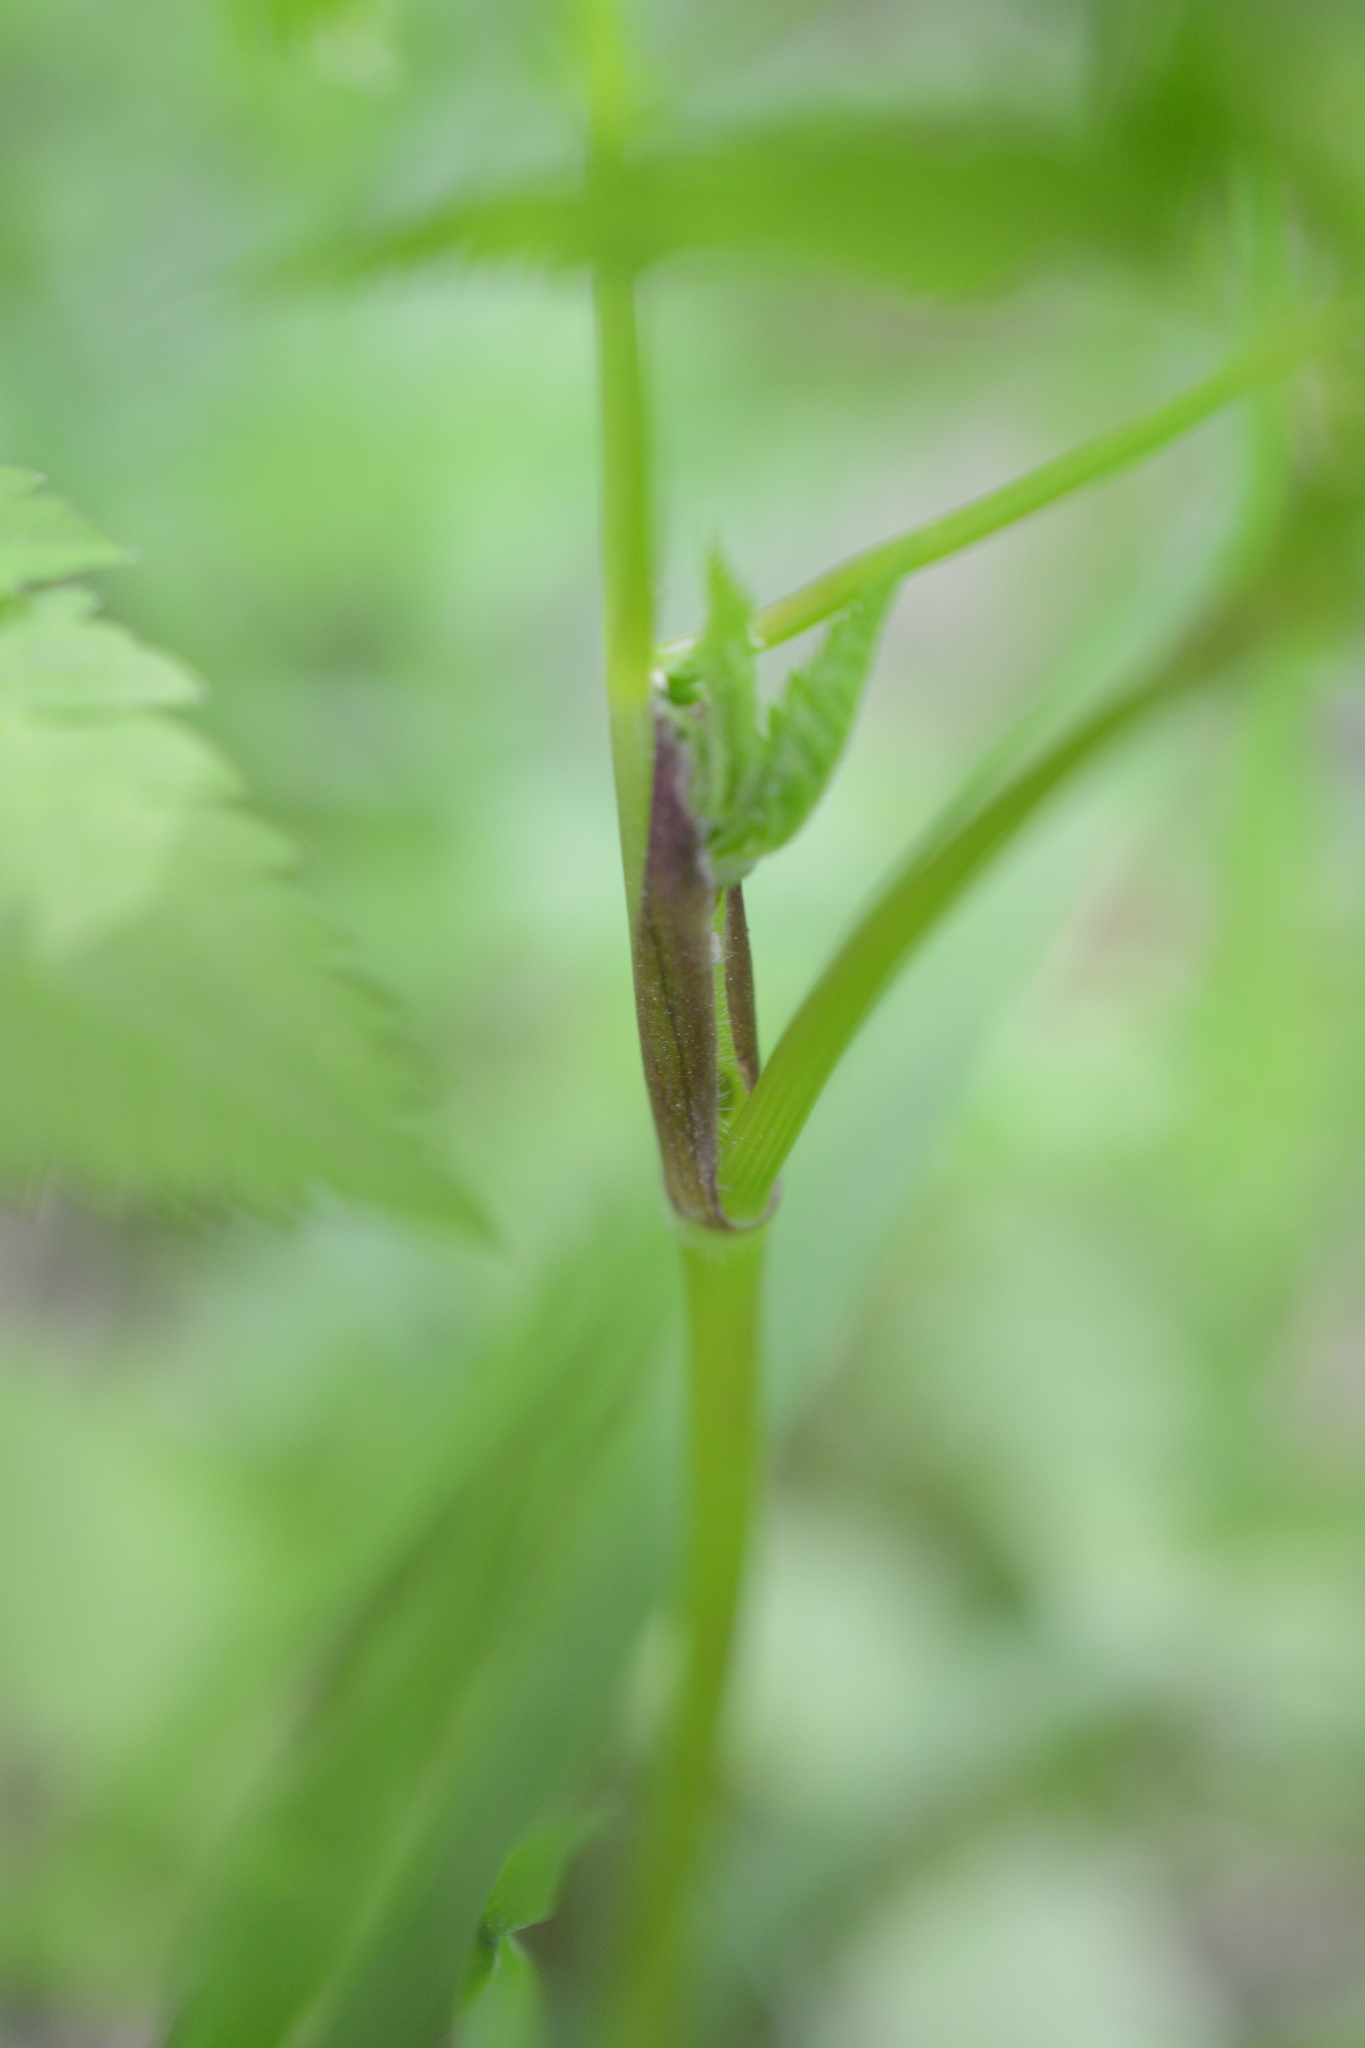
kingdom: Plantae
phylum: Tracheophyta
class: Magnoliopsida
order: Apiales
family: Apiaceae
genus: Osmorhiza
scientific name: Osmorhiza berteroi
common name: Mountain sweet cicely
